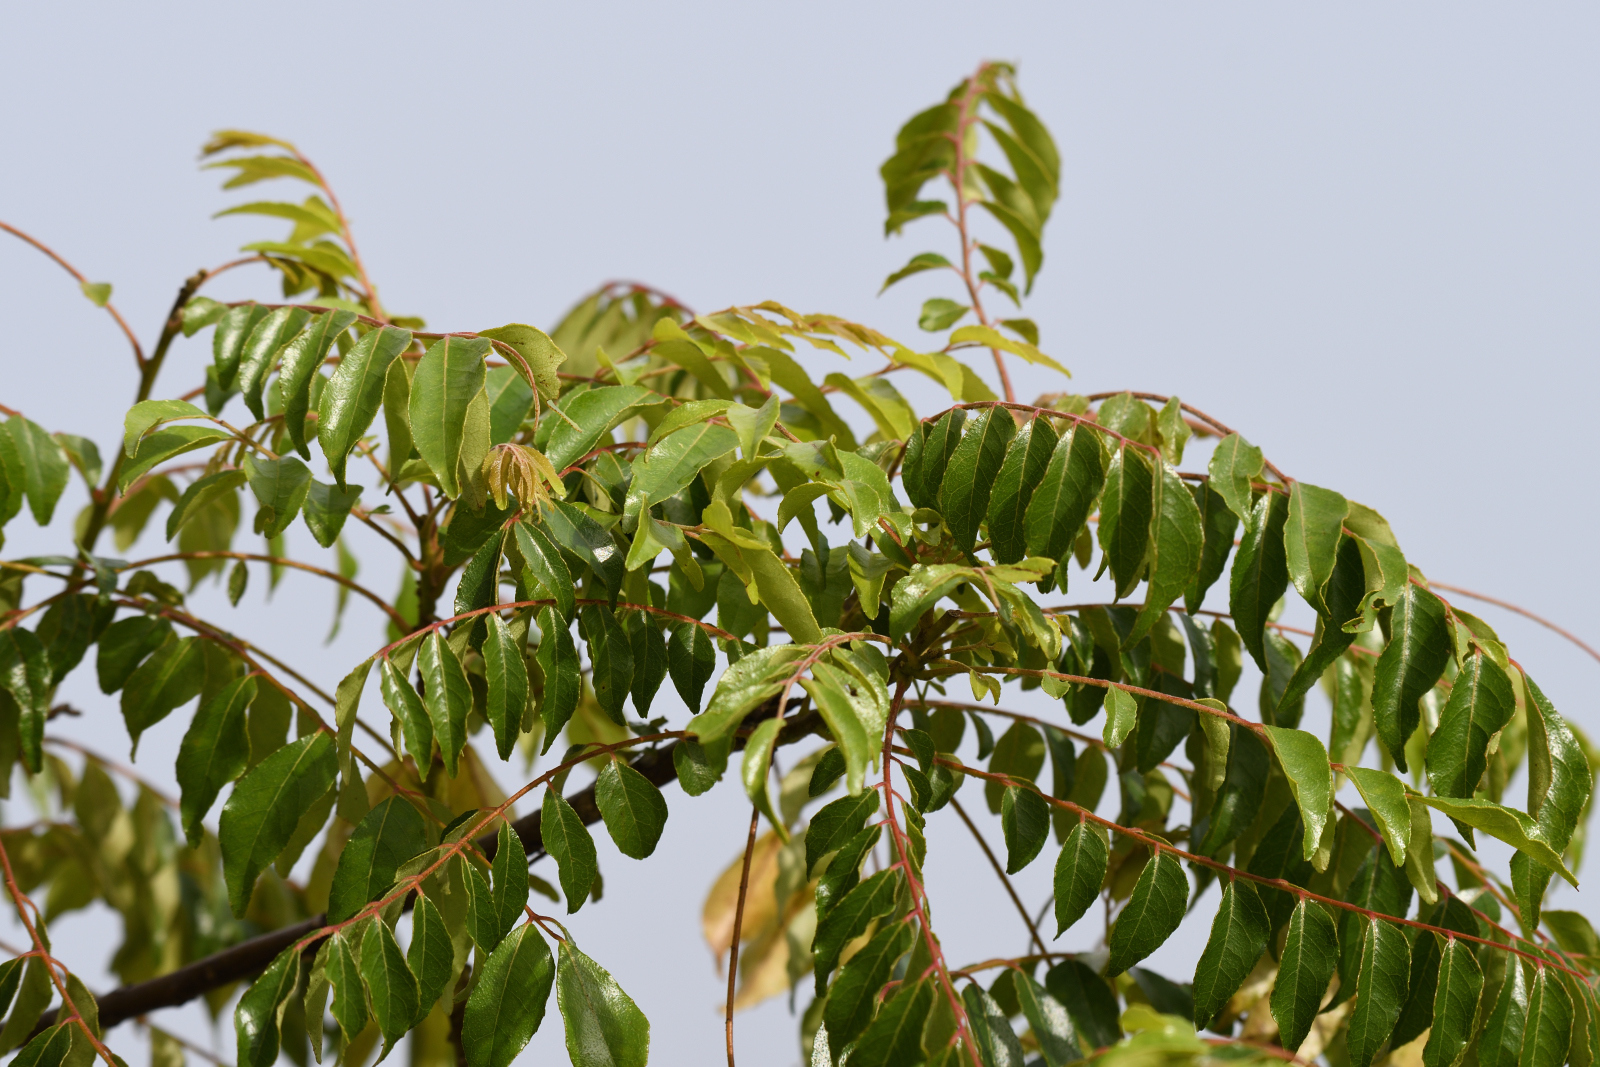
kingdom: Plantae
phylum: Tracheophyta
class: Magnoliopsida
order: Sapindales
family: Rutaceae
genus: Murraya
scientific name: Murraya koenigii
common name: Curry-plant
